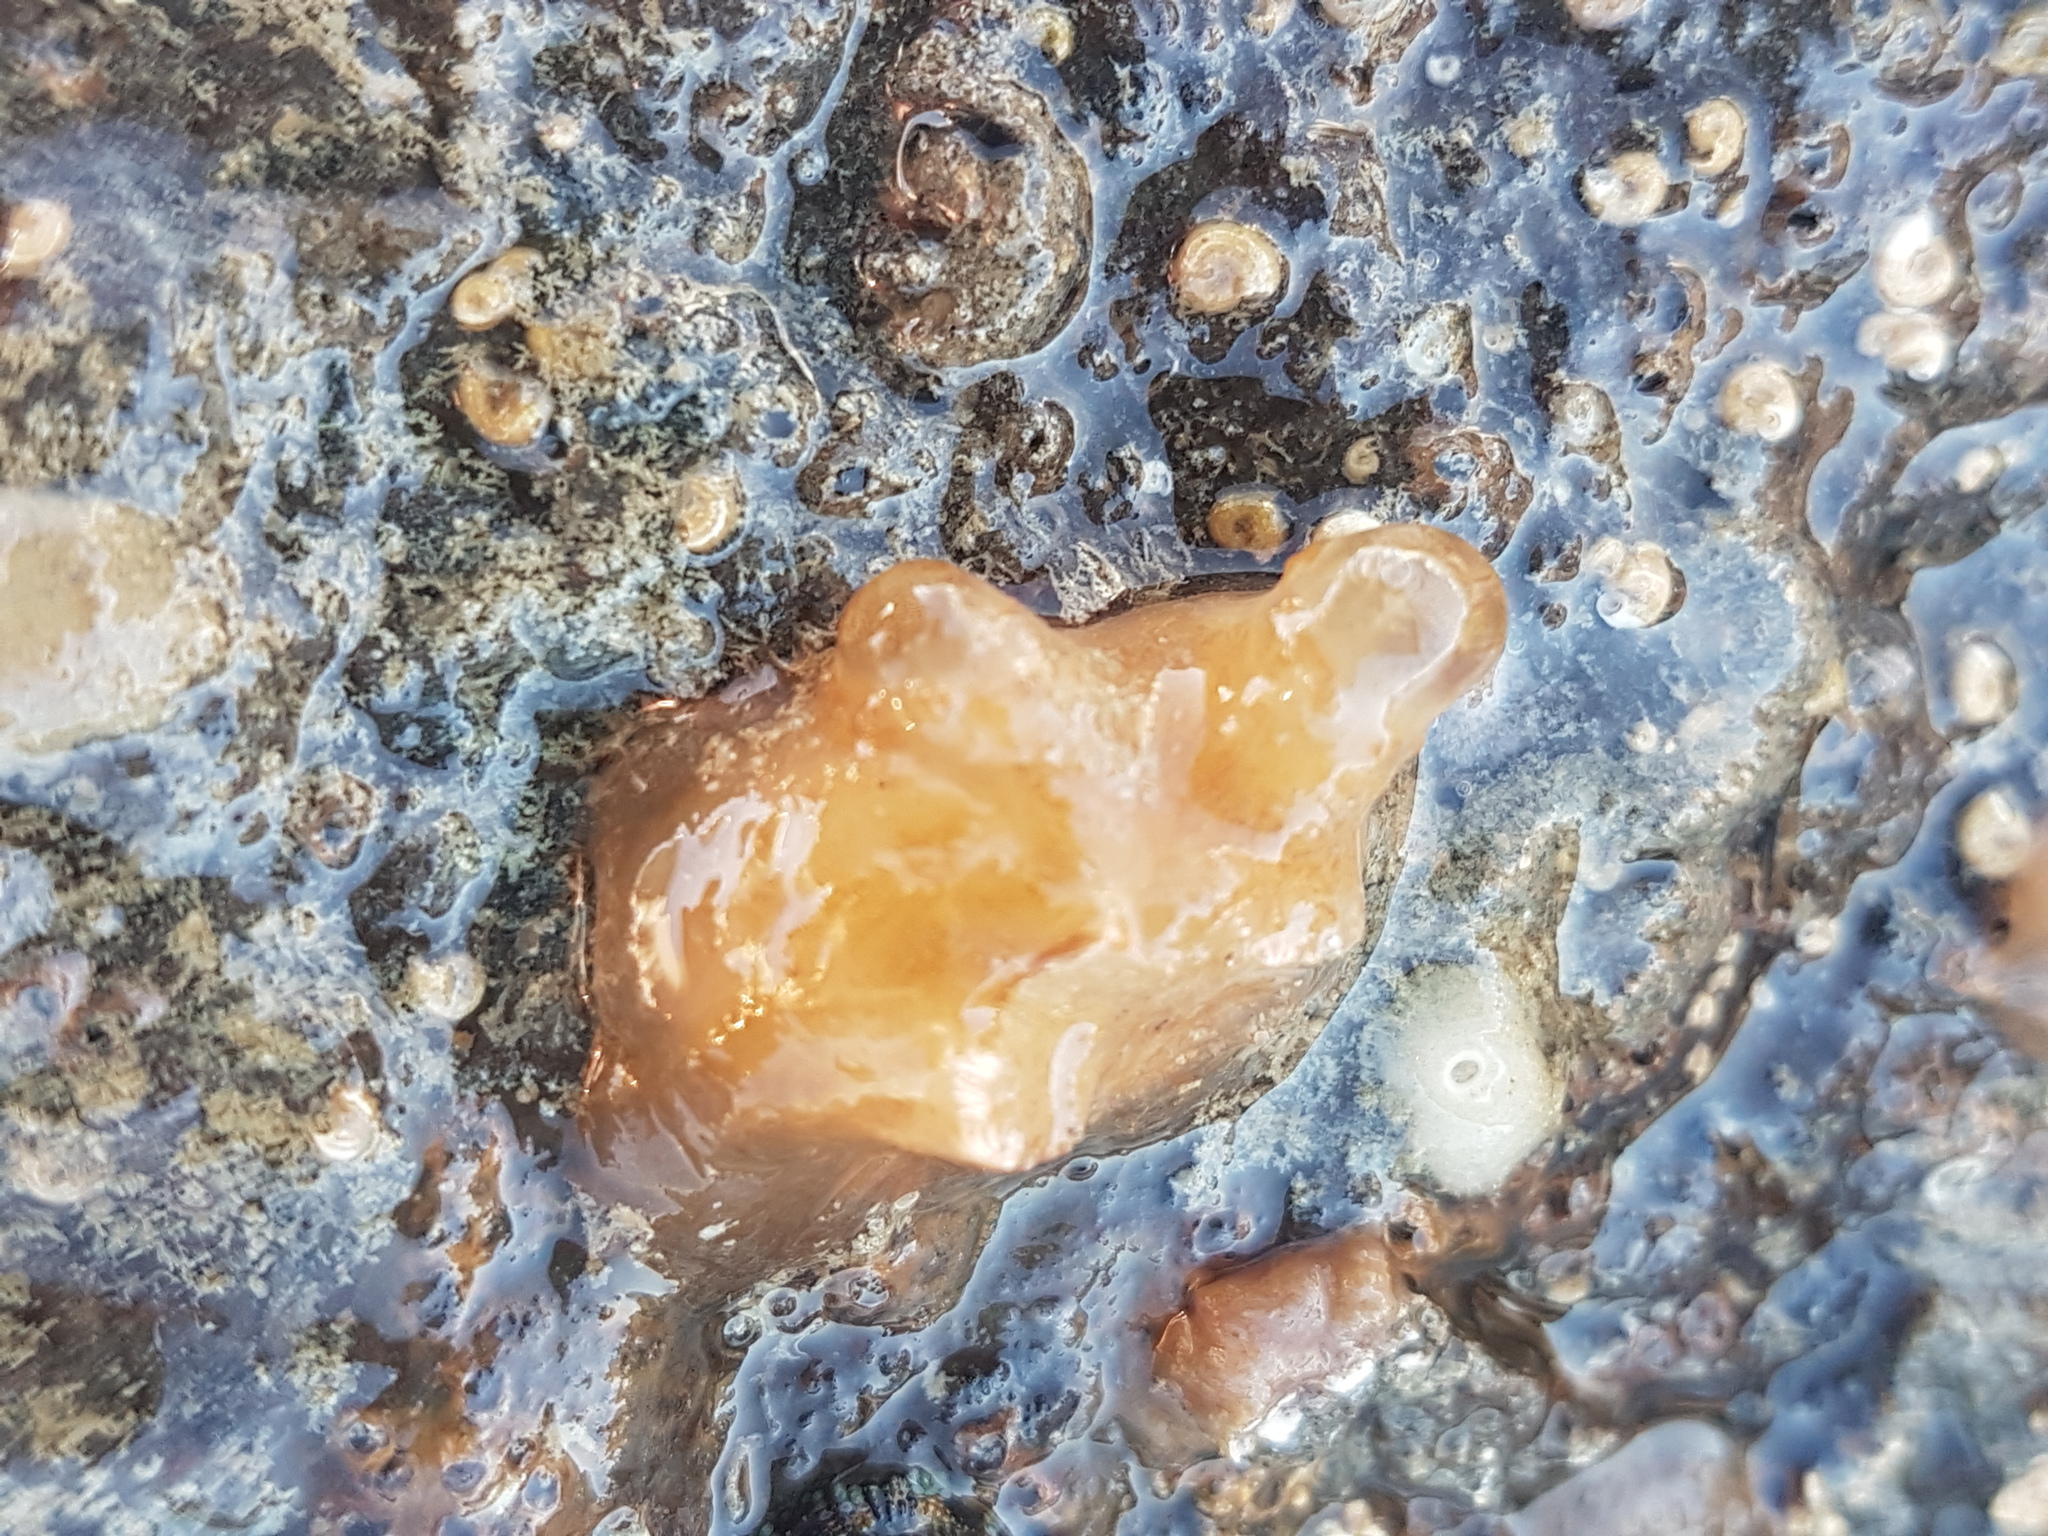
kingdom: Animalia
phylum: Chordata
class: Ascidiacea
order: Stolidobranchia
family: Molgulidae
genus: Molgula
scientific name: Molgula manhattensis
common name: Molgula
